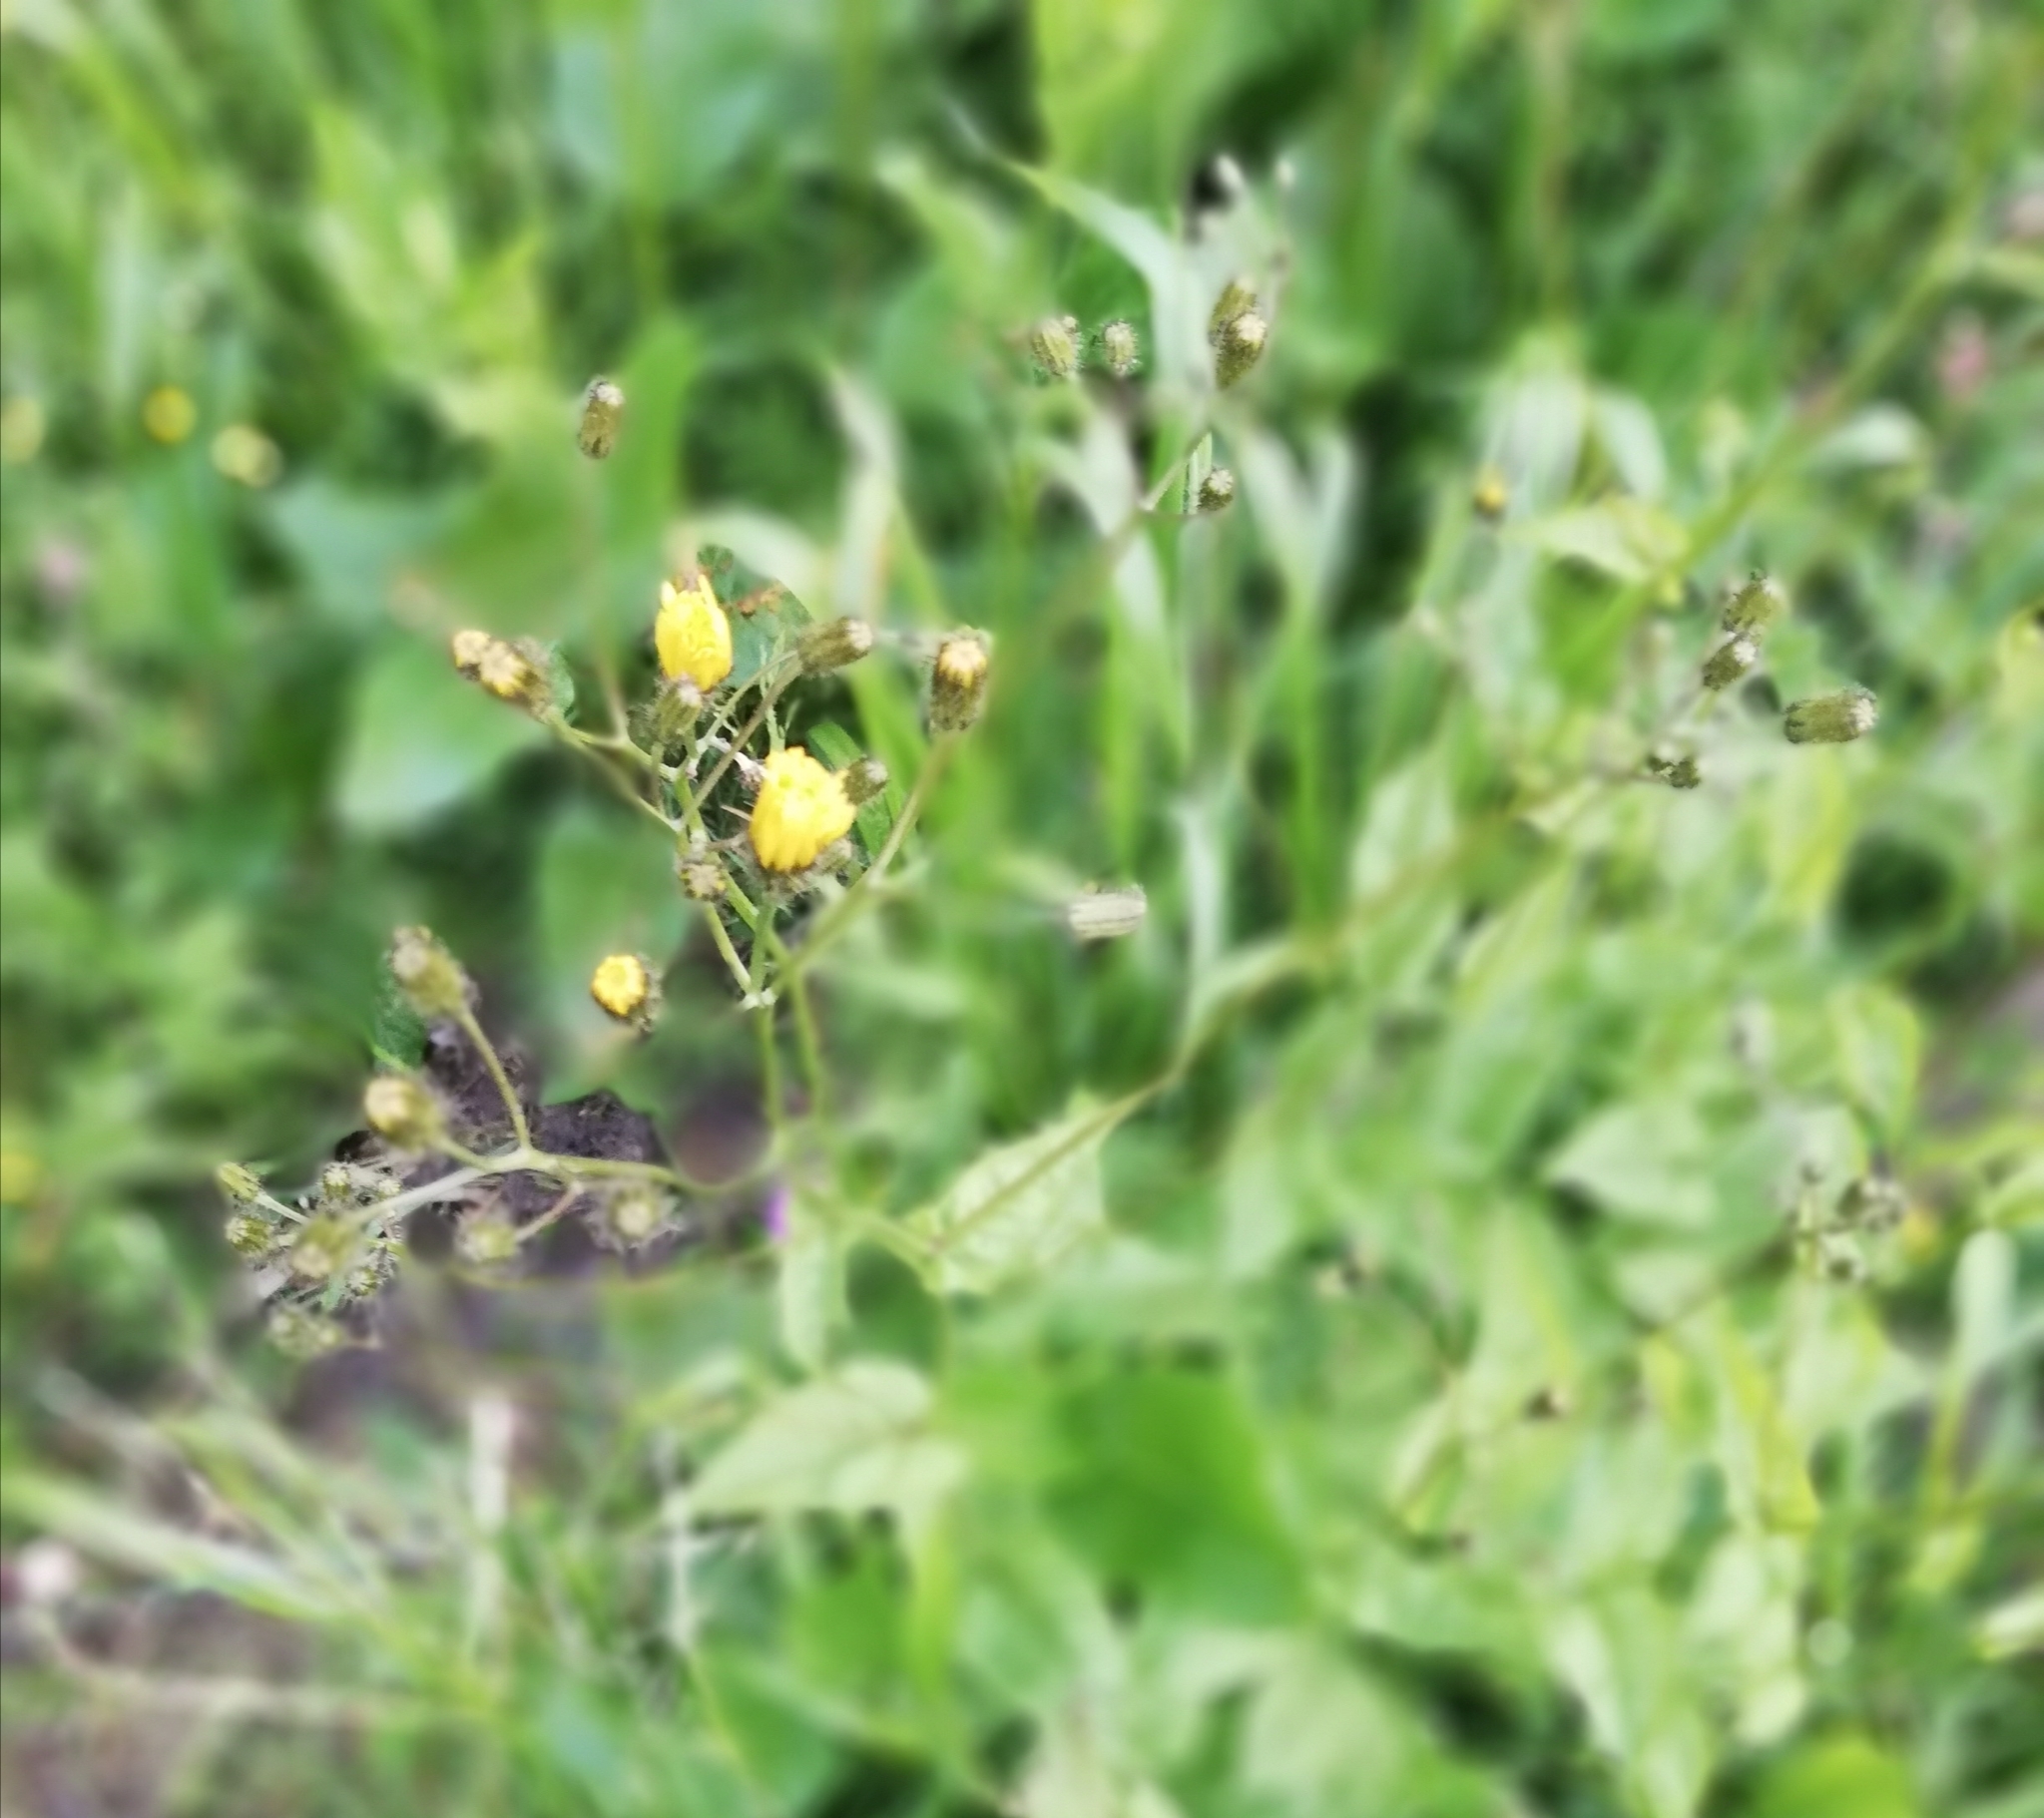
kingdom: Plantae
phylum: Tracheophyta
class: Magnoliopsida
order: Asterales
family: Asteraceae
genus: Crepis
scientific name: Crepis paludosa
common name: Marsh hawk's-beard
